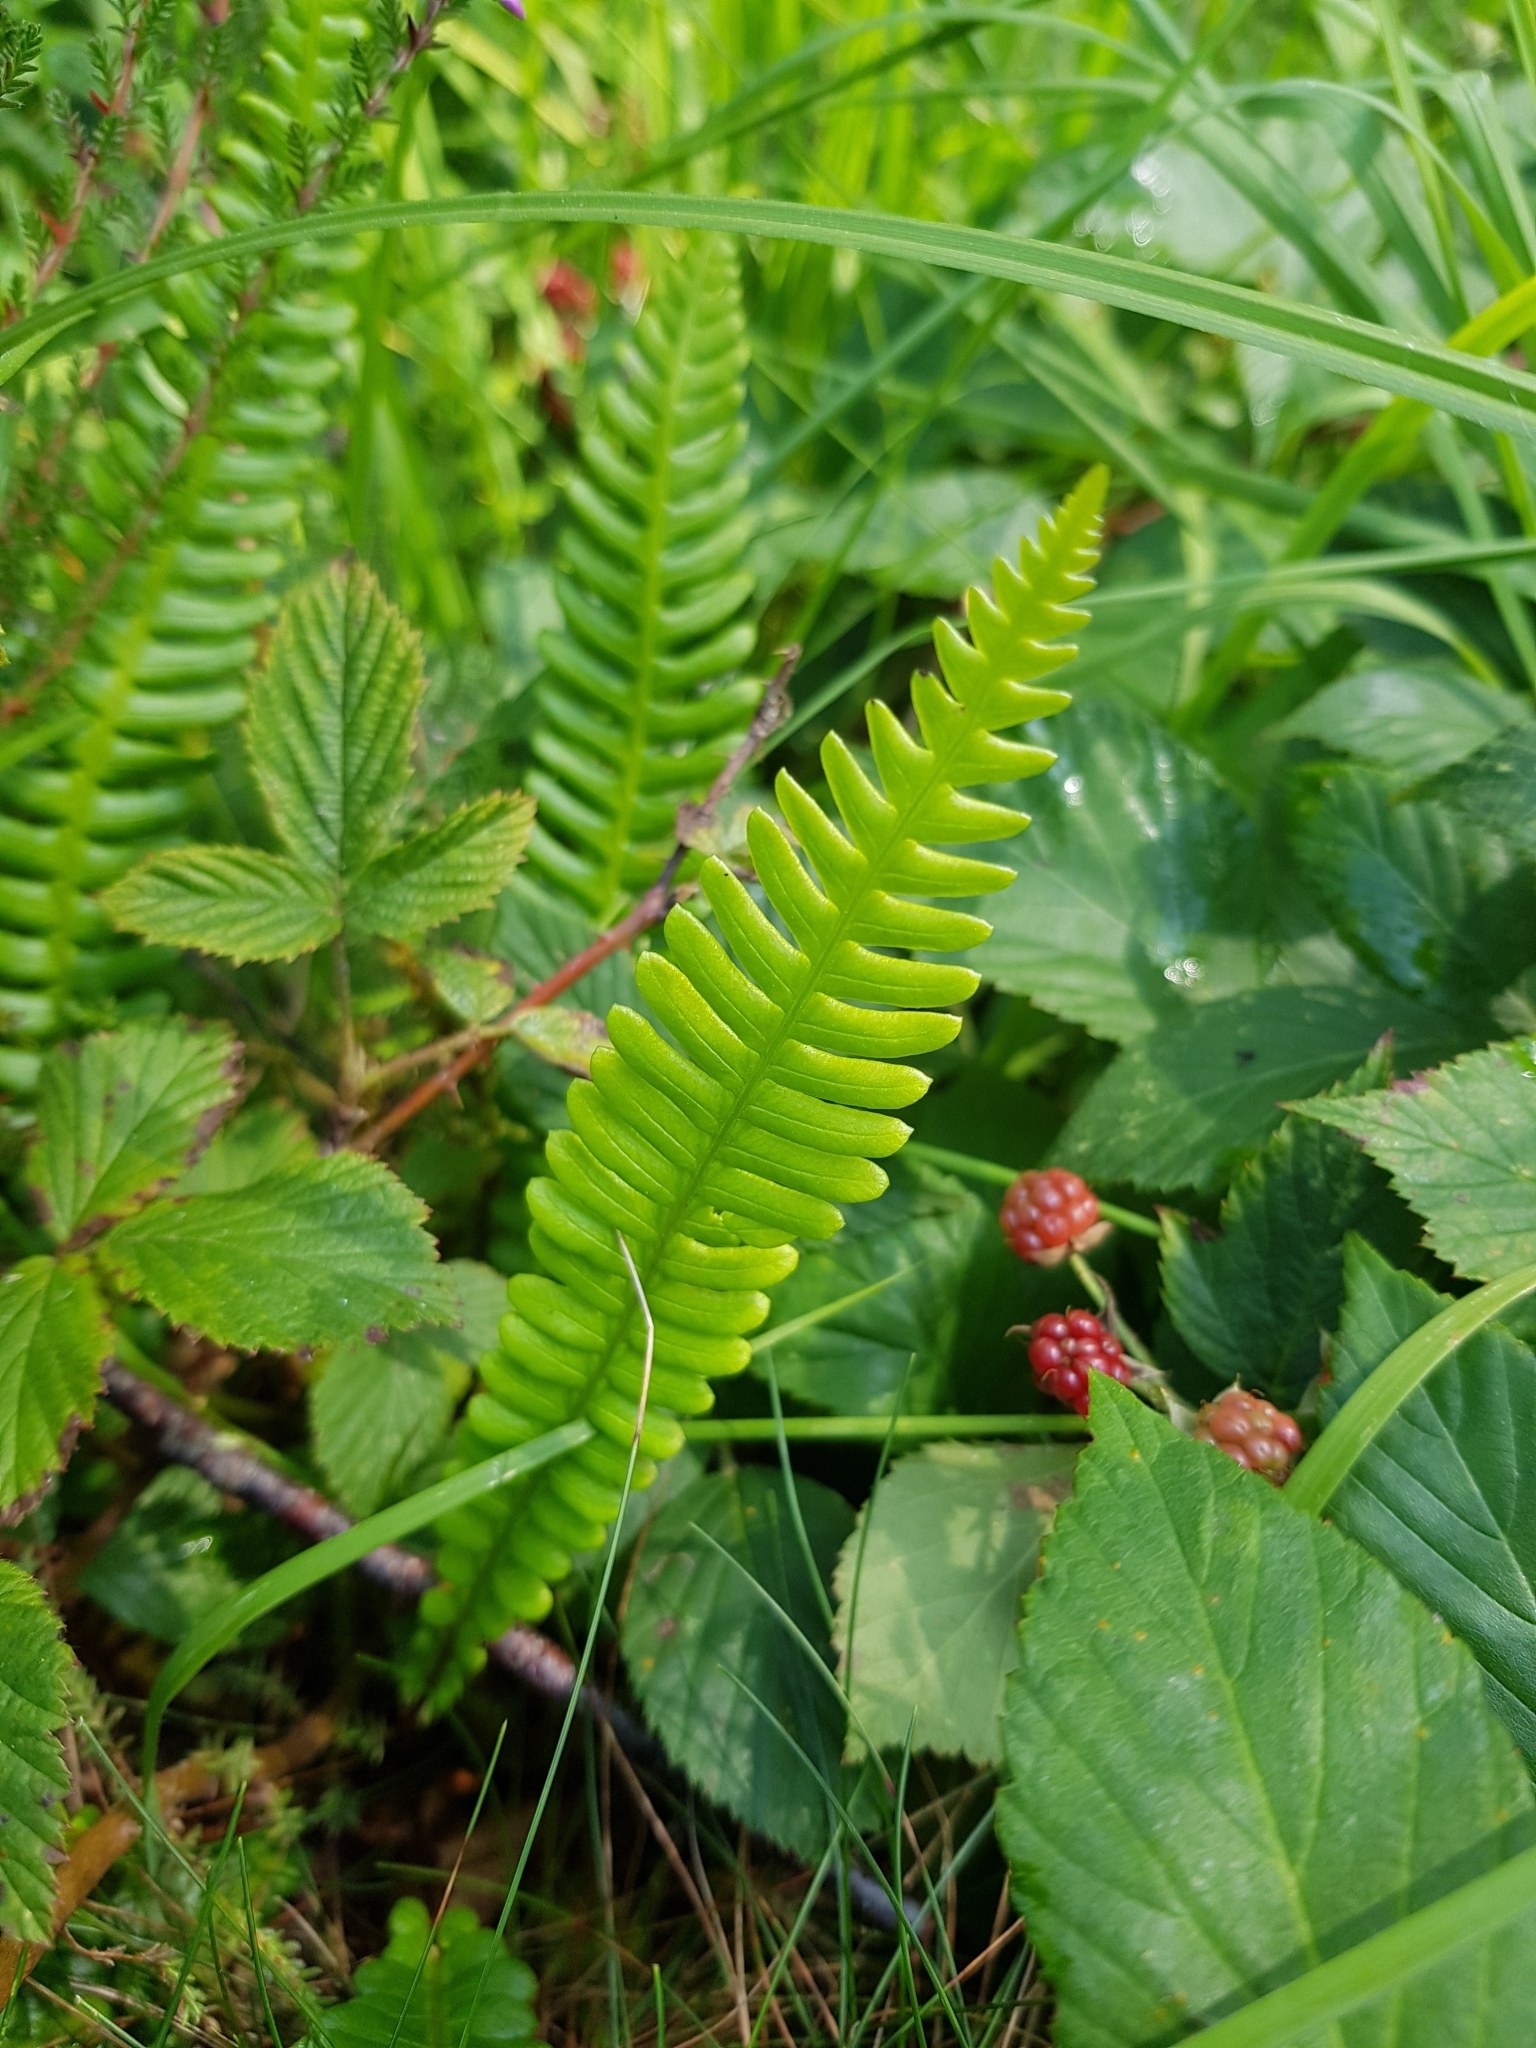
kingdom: Plantae
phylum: Tracheophyta
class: Polypodiopsida
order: Polypodiales
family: Blechnaceae
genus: Struthiopteris
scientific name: Struthiopteris spicant
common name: Deer fern
